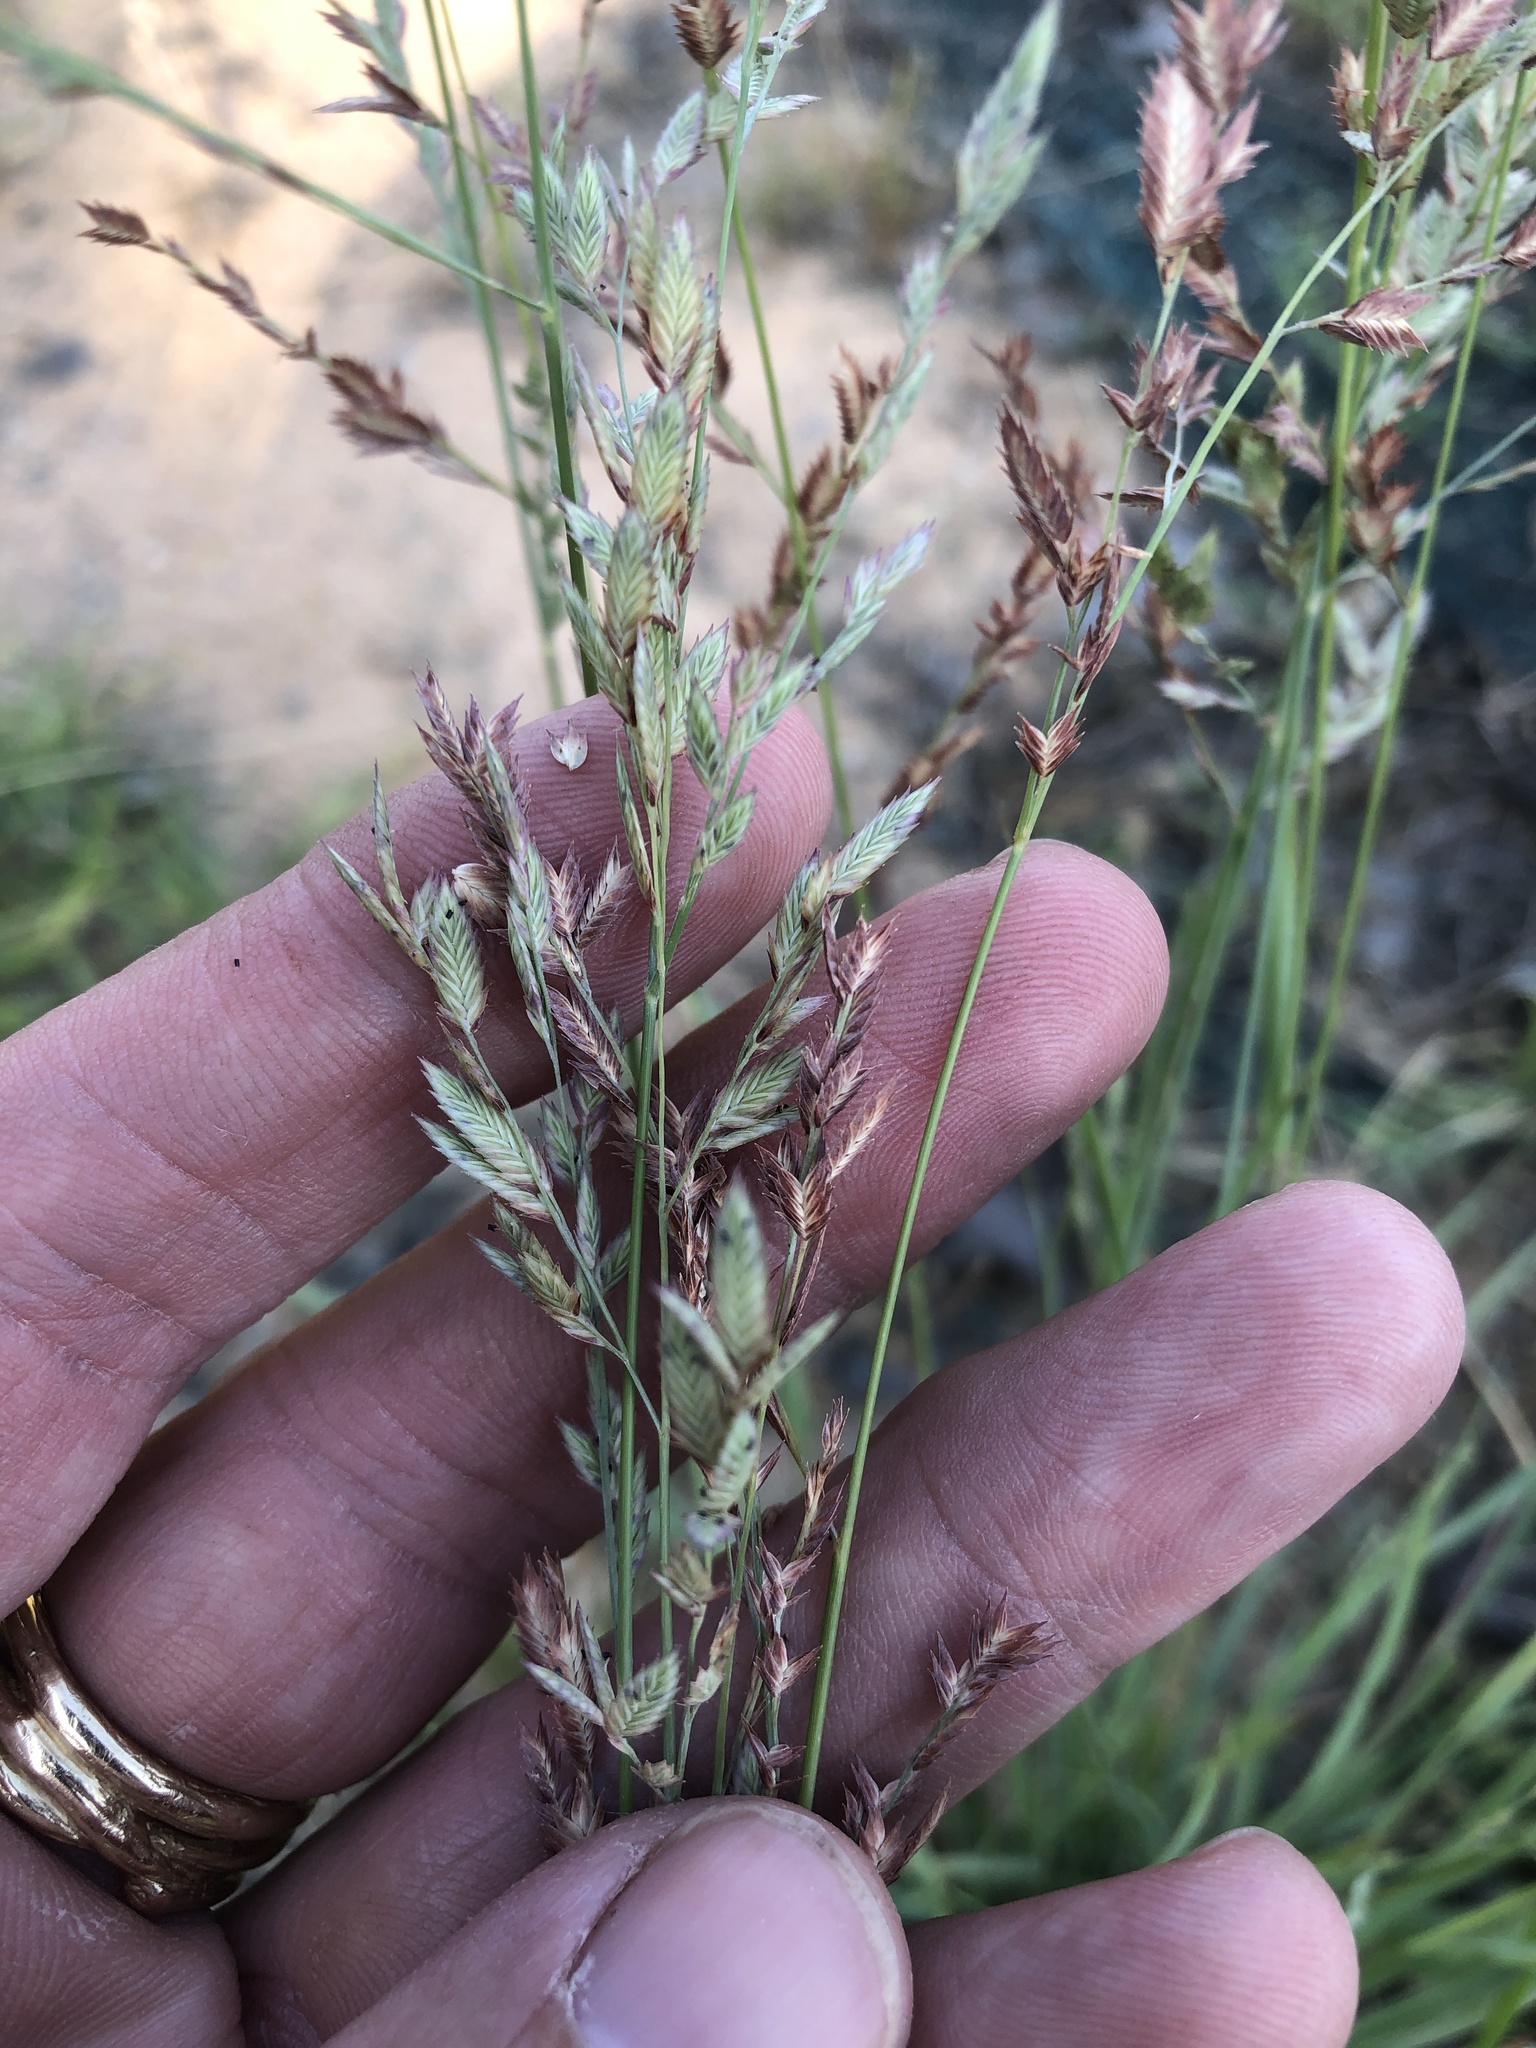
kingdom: Plantae
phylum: Tracheophyta
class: Liliopsida
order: Poales
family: Poaceae
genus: Eragrostis
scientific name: Eragrostis secundiflora
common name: Red love grass
